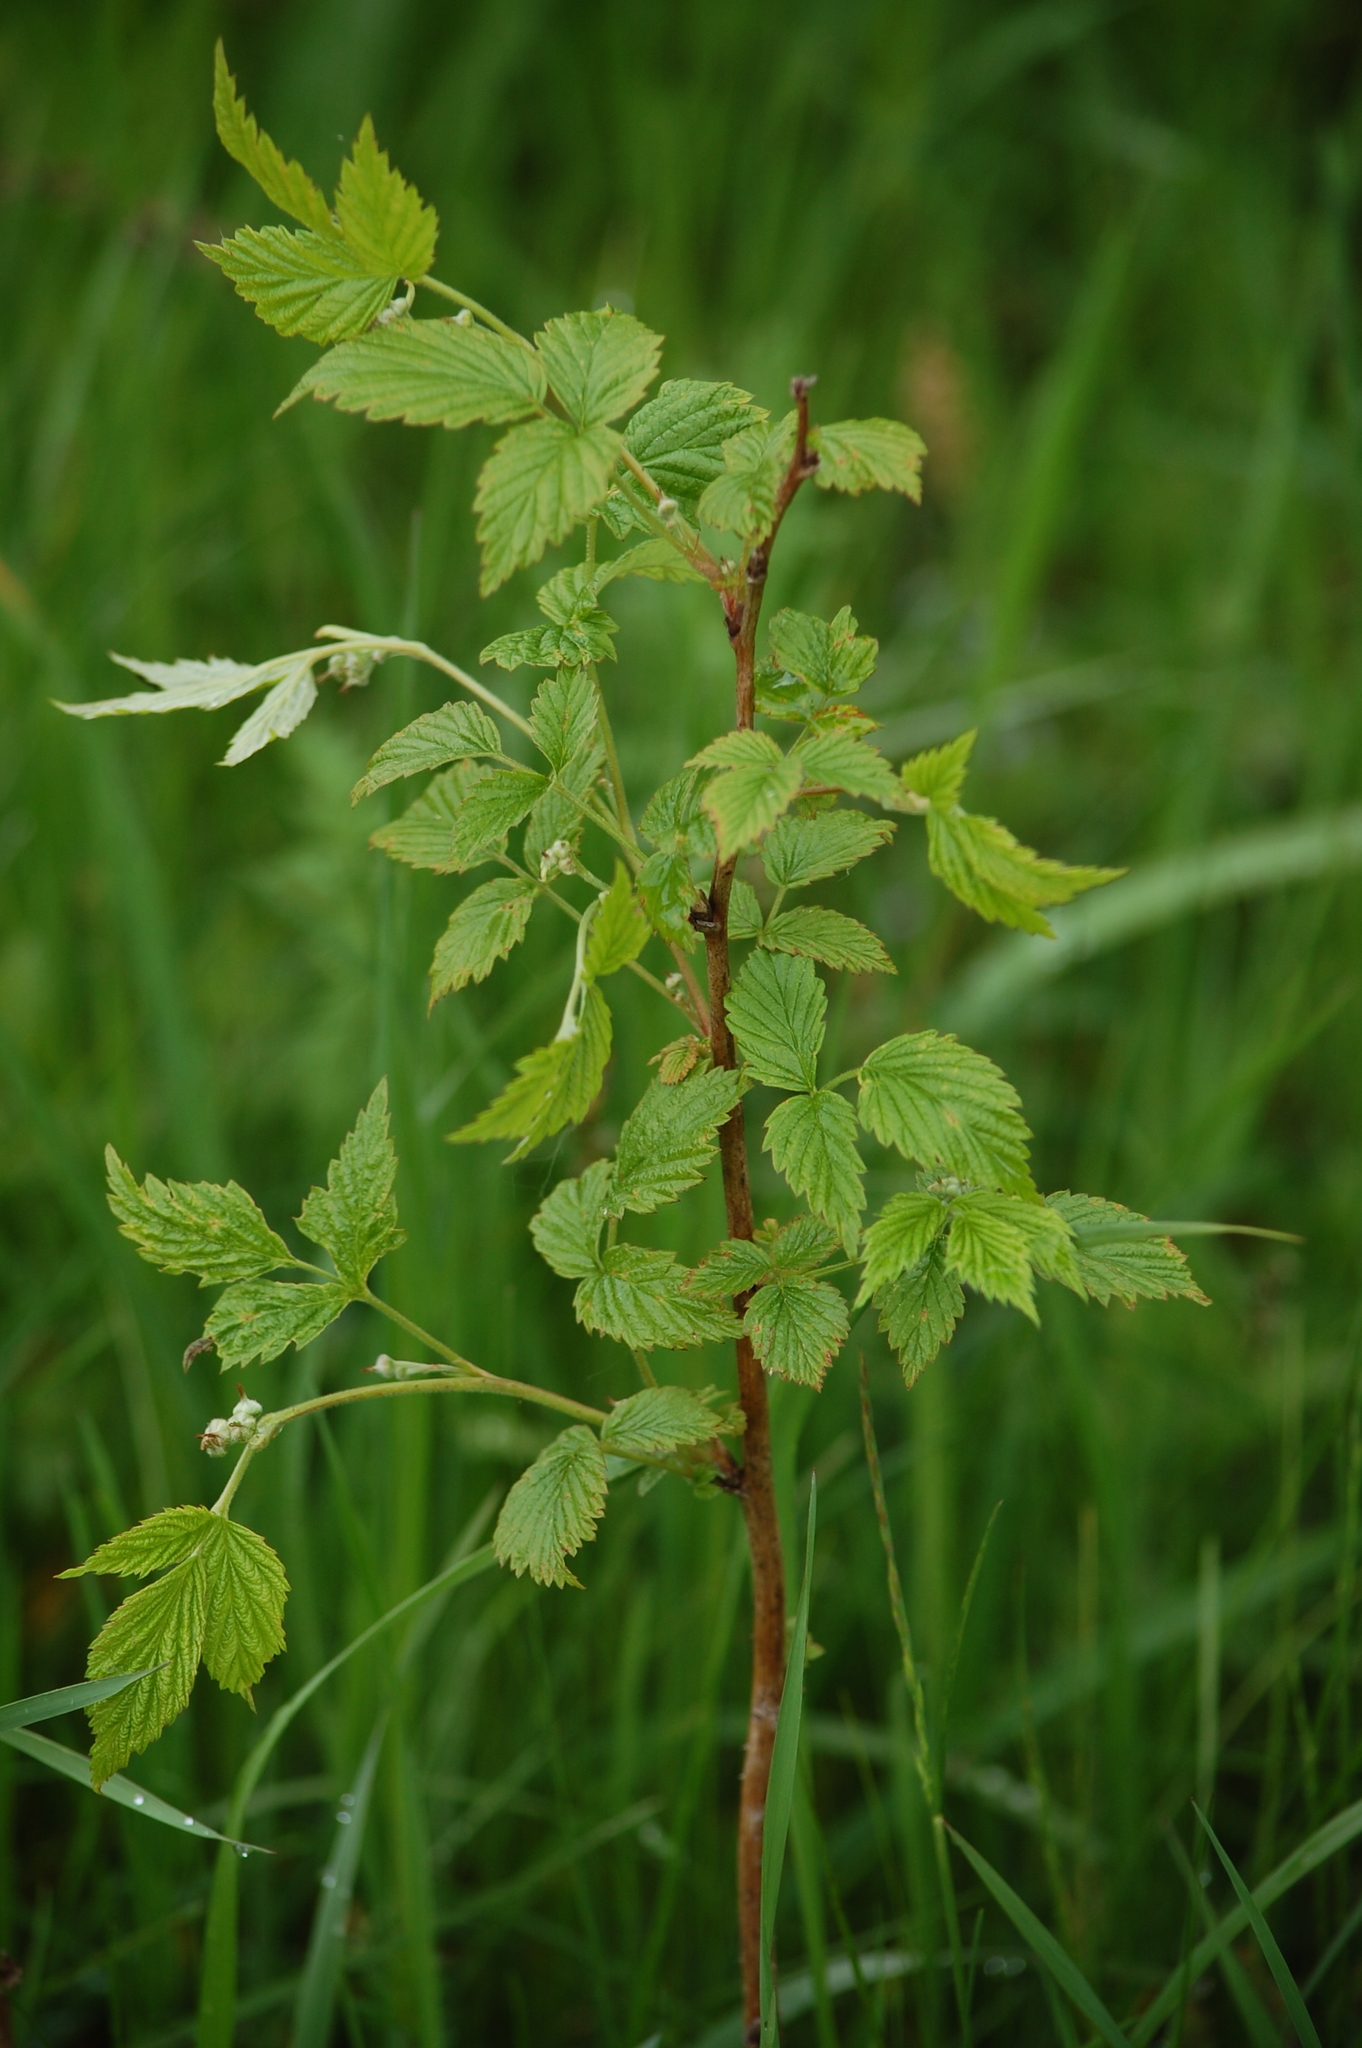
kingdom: Plantae
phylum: Tracheophyta
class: Magnoliopsida
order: Rosales
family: Rosaceae
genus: Rubus
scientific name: Rubus idaeus
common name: Raspberry
